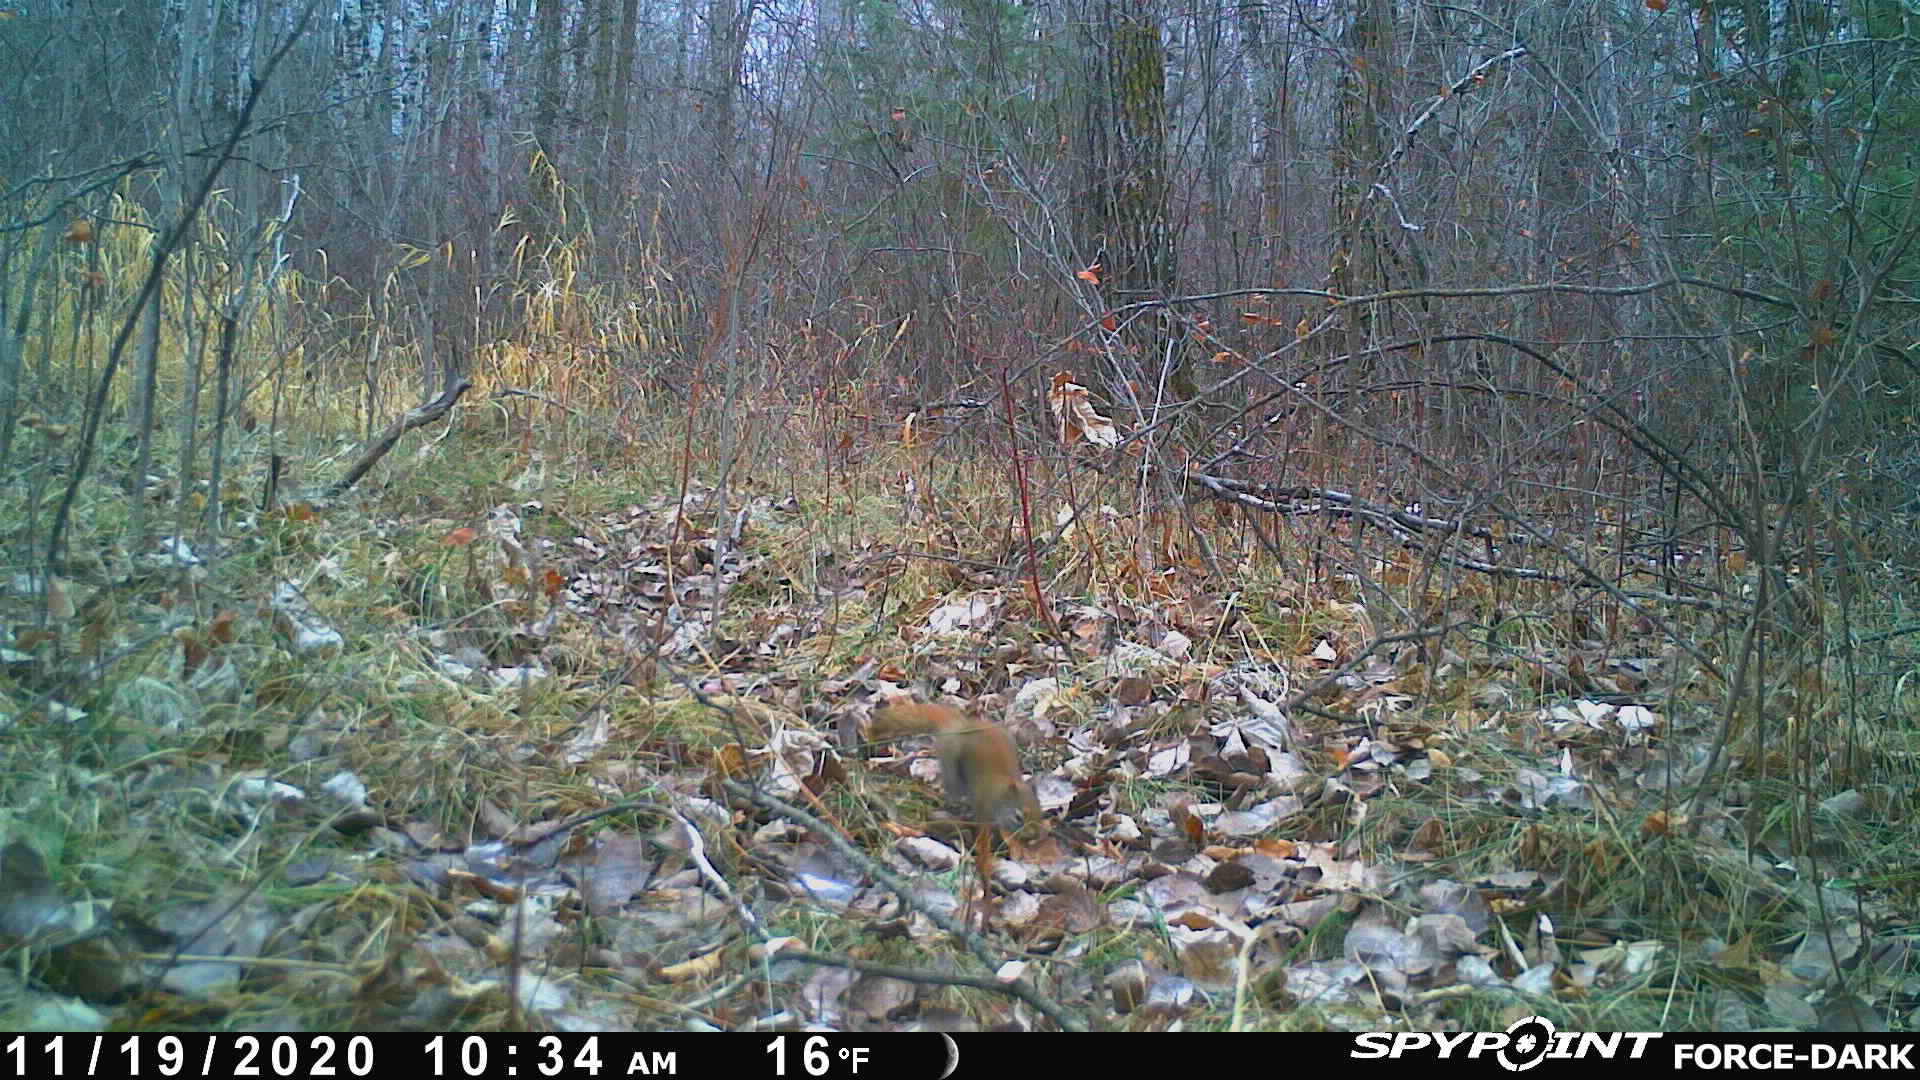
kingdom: Animalia
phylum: Chordata
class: Mammalia
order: Rodentia
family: Sciuridae
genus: Tamiasciurus
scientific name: Tamiasciurus hudsonicus
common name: Red squirrel
